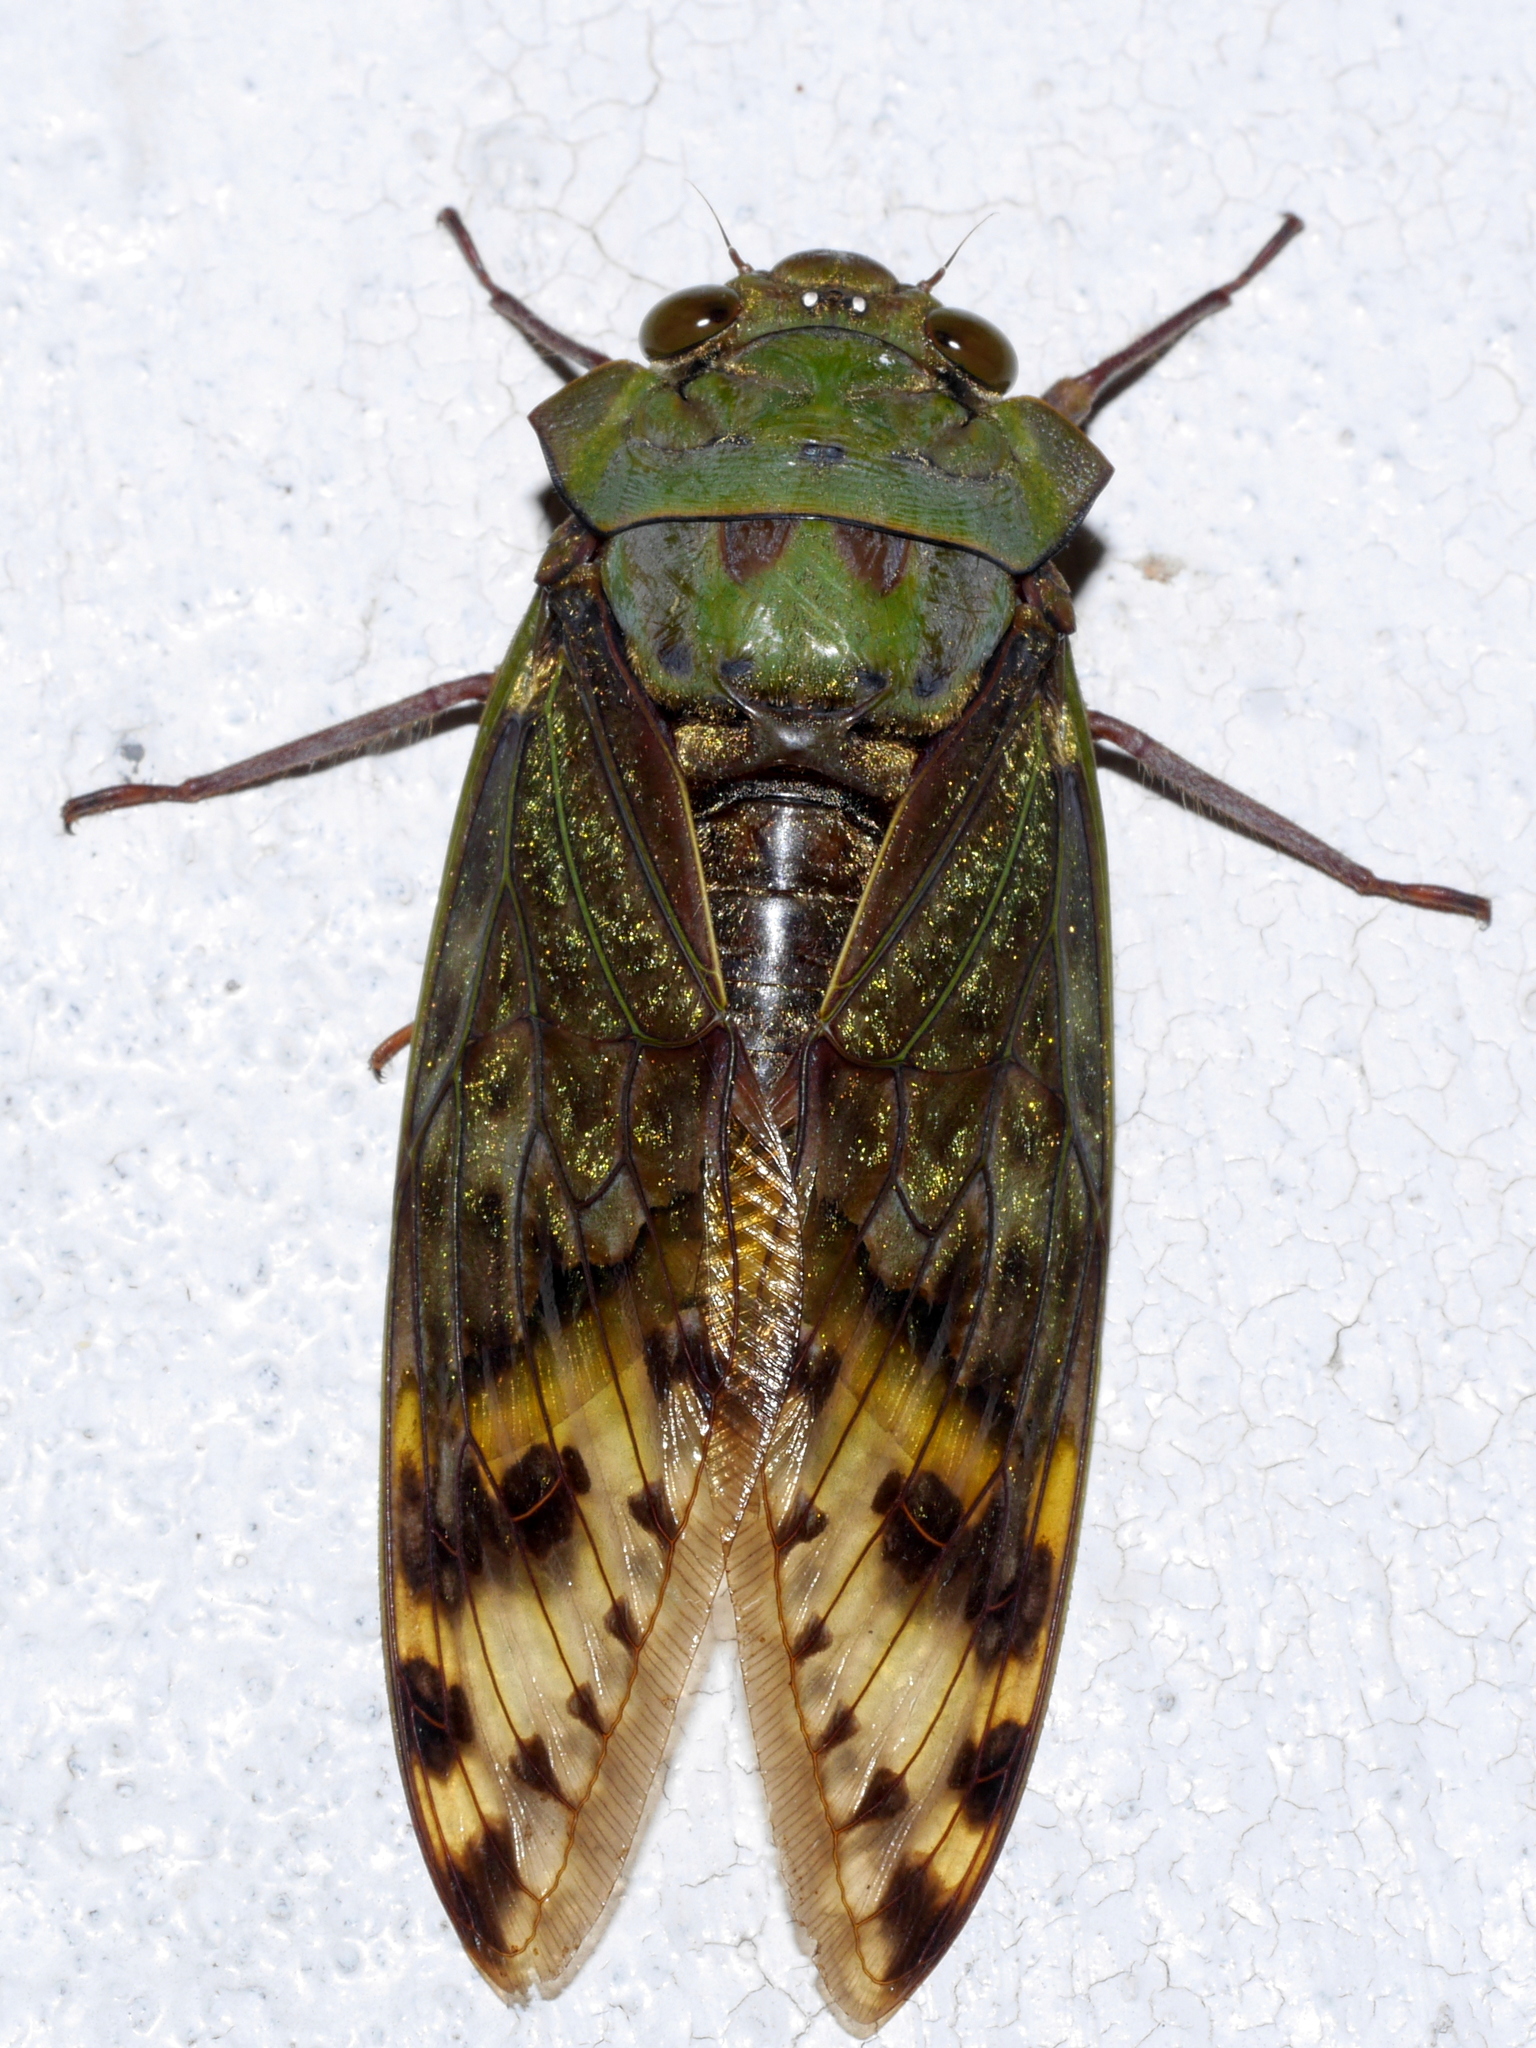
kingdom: Animalia
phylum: Arthropoda
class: Insecta
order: Hemiptera
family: Cicadidae
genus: Ugada
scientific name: Ugada grandicollis
